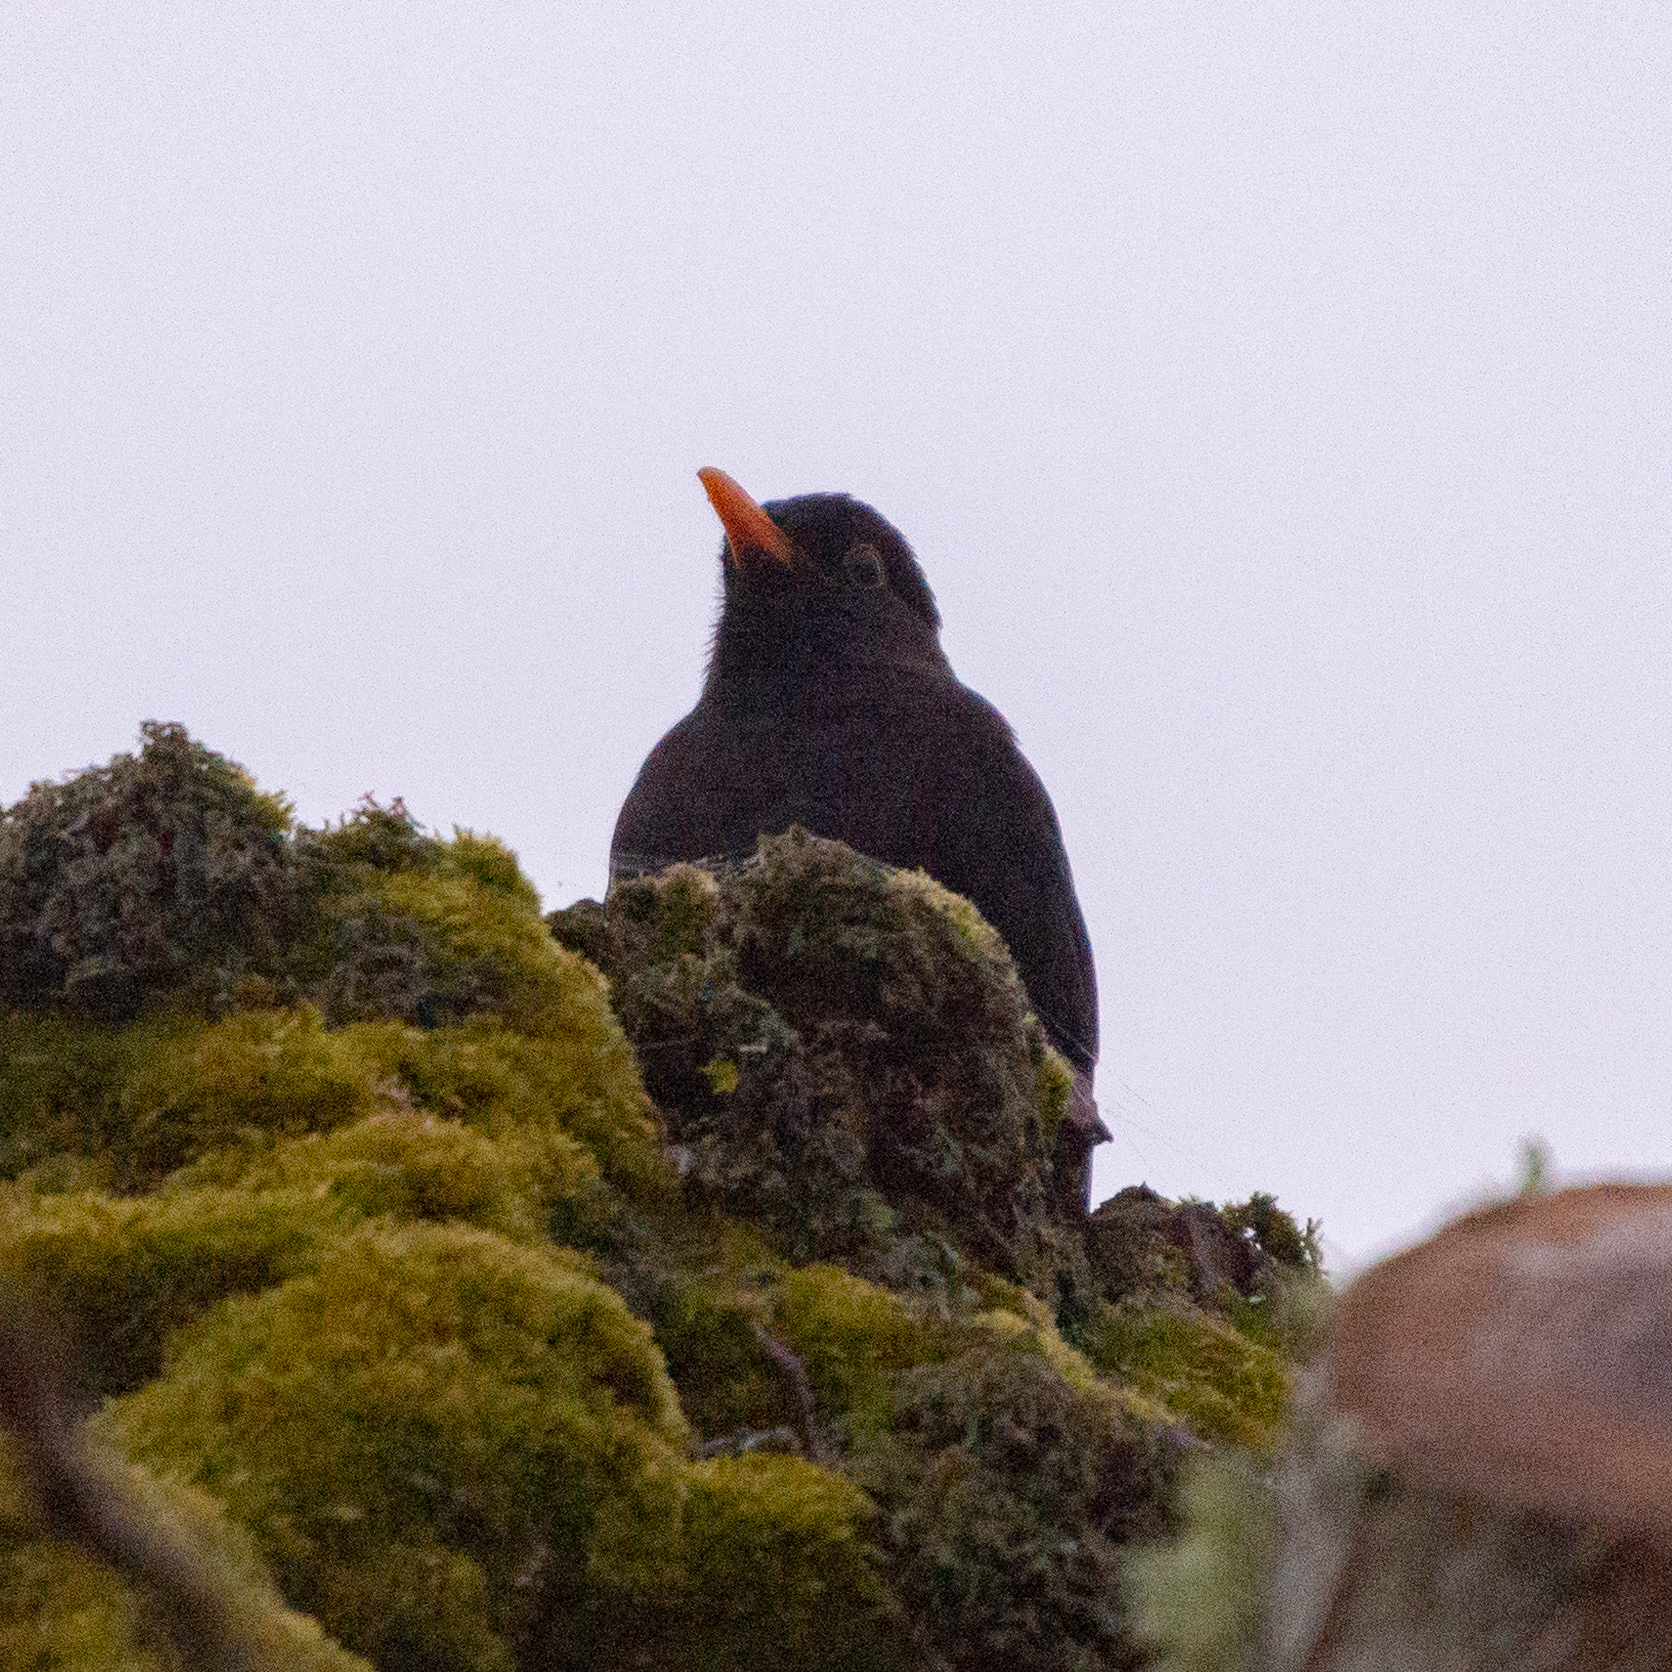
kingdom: Animalia
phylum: Chordata
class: Aves
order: Passeriformes
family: Turdidae
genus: Turdus
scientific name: Turdus merula
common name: Common blackbird
